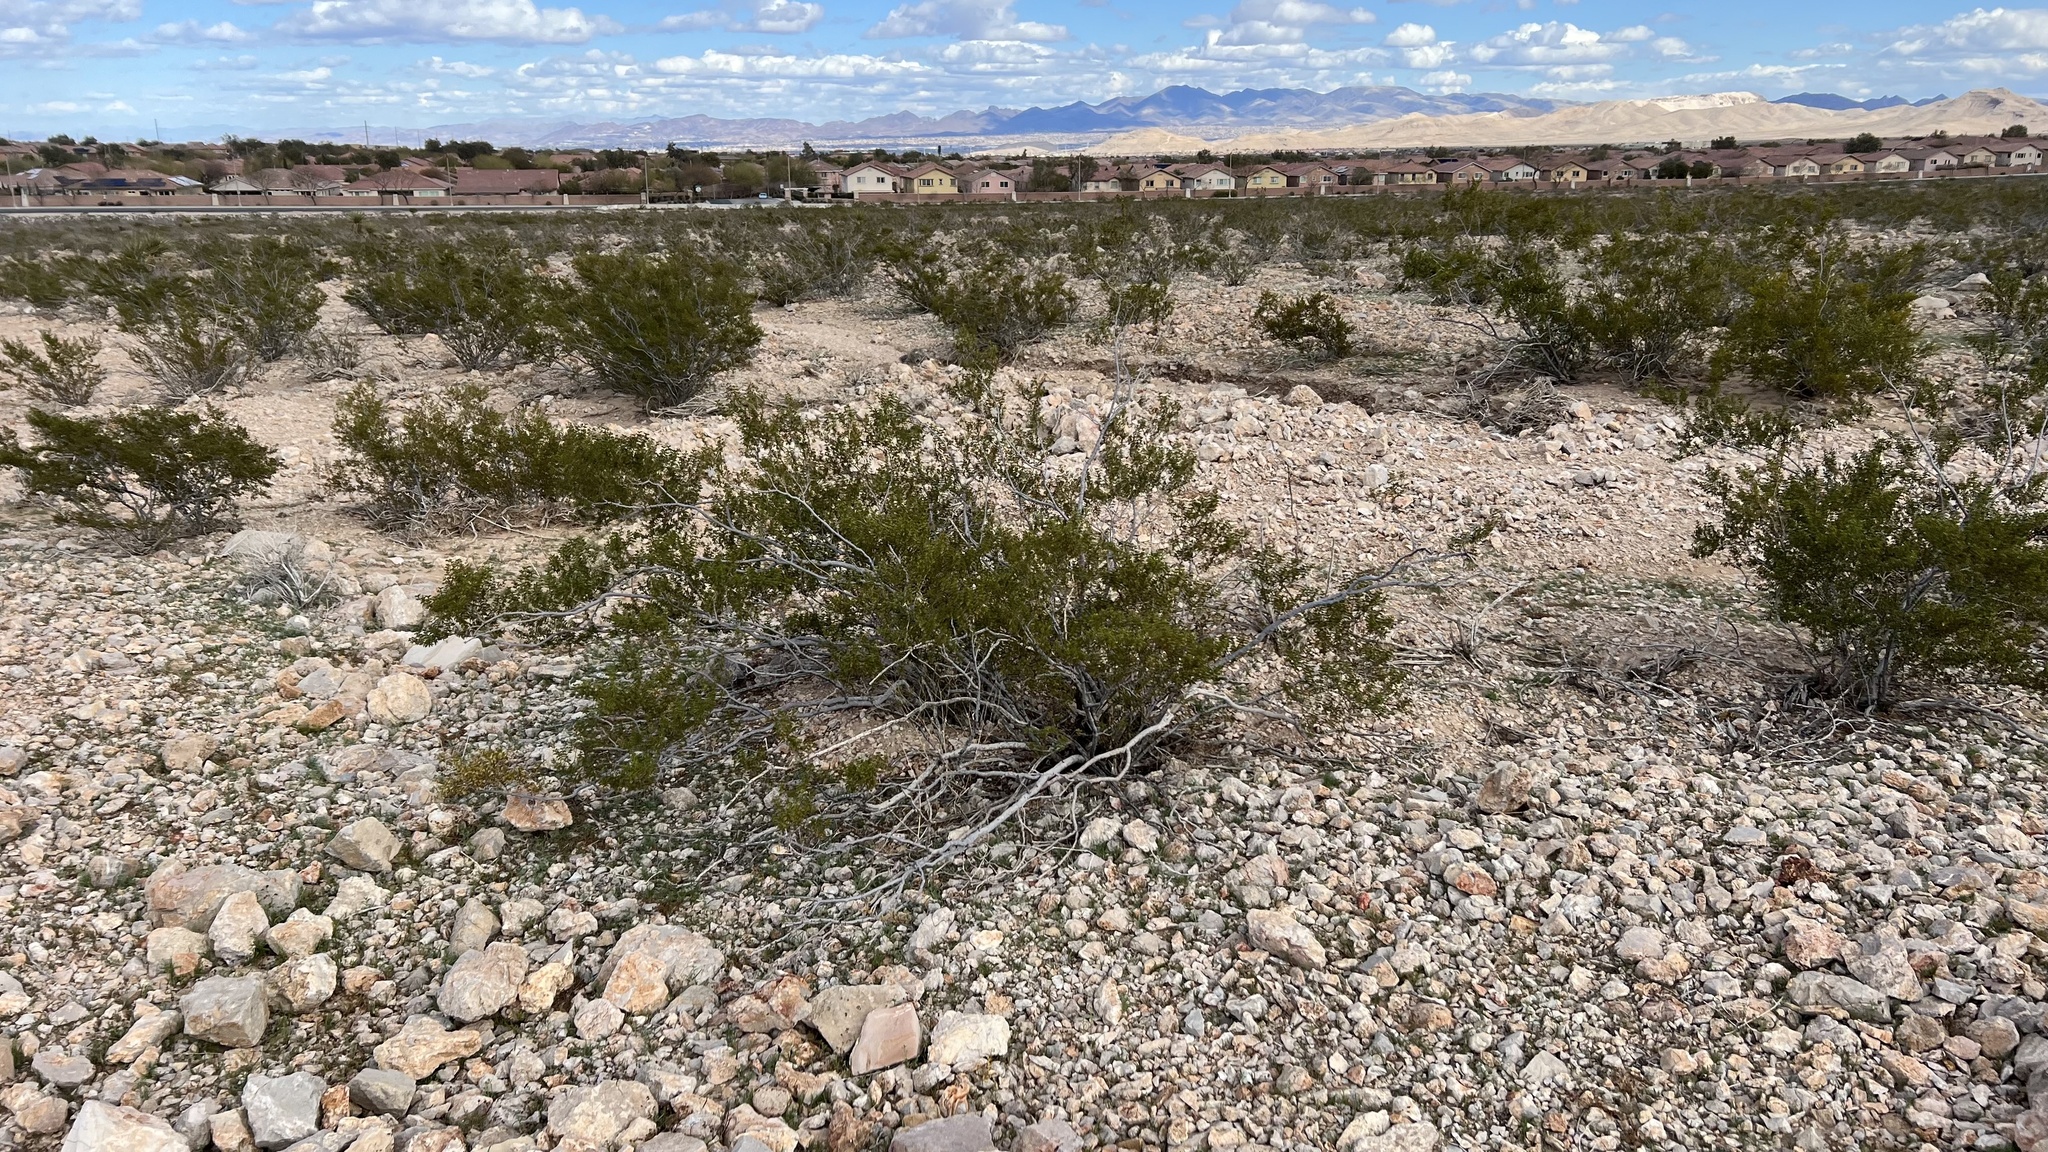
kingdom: Plantae
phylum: Tracheophyta
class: Magnoliopsida
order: Zygophyllales
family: Zygophyllaceae
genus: Larrea
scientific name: Larrea tridentata
